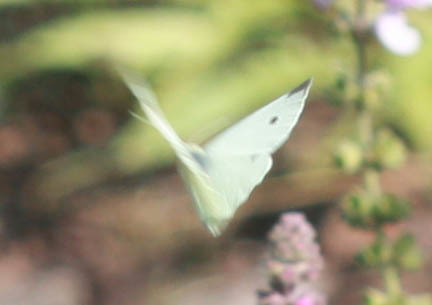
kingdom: Animalia
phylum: Arthropoda
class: Insecta
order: Lepidoptera
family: Pieridae
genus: Pieris
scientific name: Pieris rapae
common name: Small white
